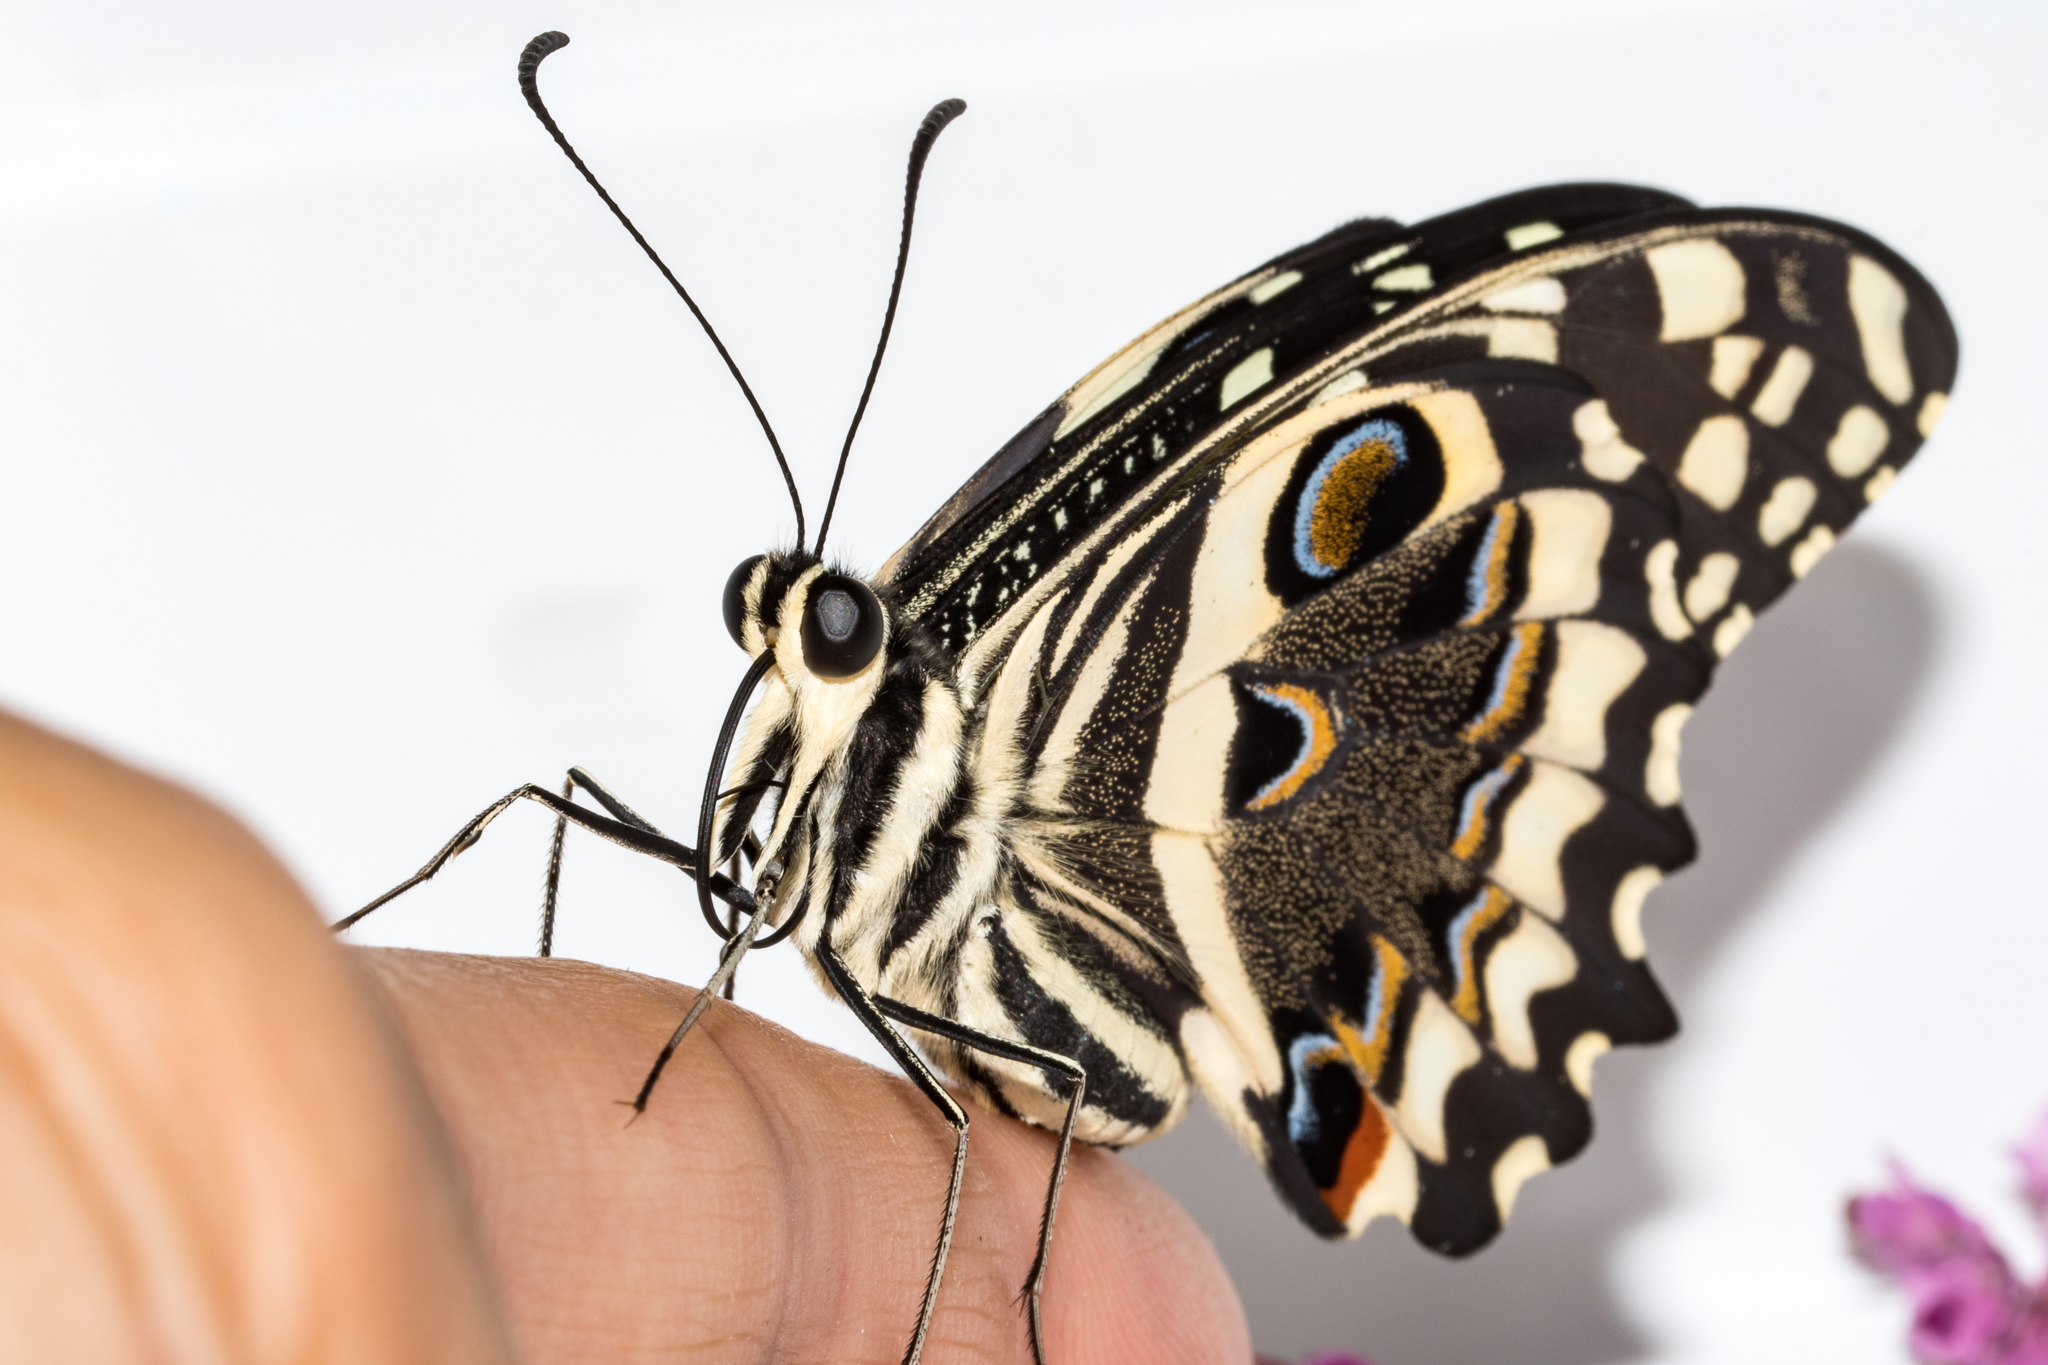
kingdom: Animalia
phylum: Arthropoda
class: Insecta
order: Lepidoptera
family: Papilionidae
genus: Papilio
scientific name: Papilio demodocus
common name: Christmas butterfly
